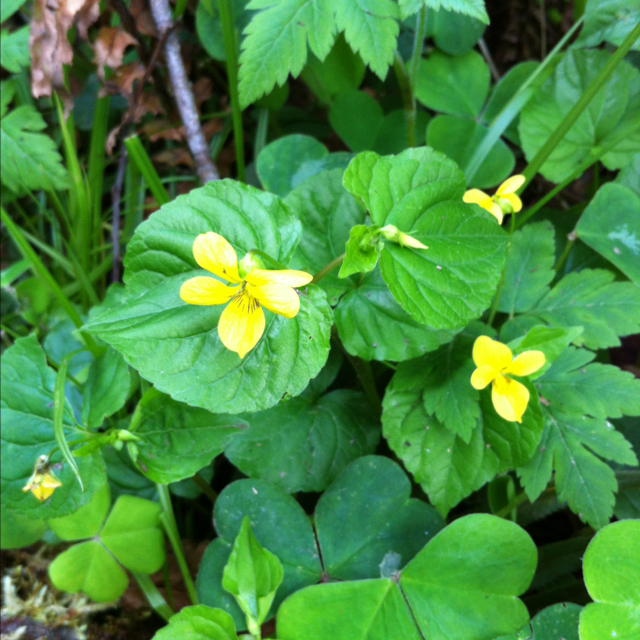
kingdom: Plantae
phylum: Tracheophyta
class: Magnoliopsida
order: Malpighiales
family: Violaceae
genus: Viola
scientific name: Viola glabella
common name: Stream violet
